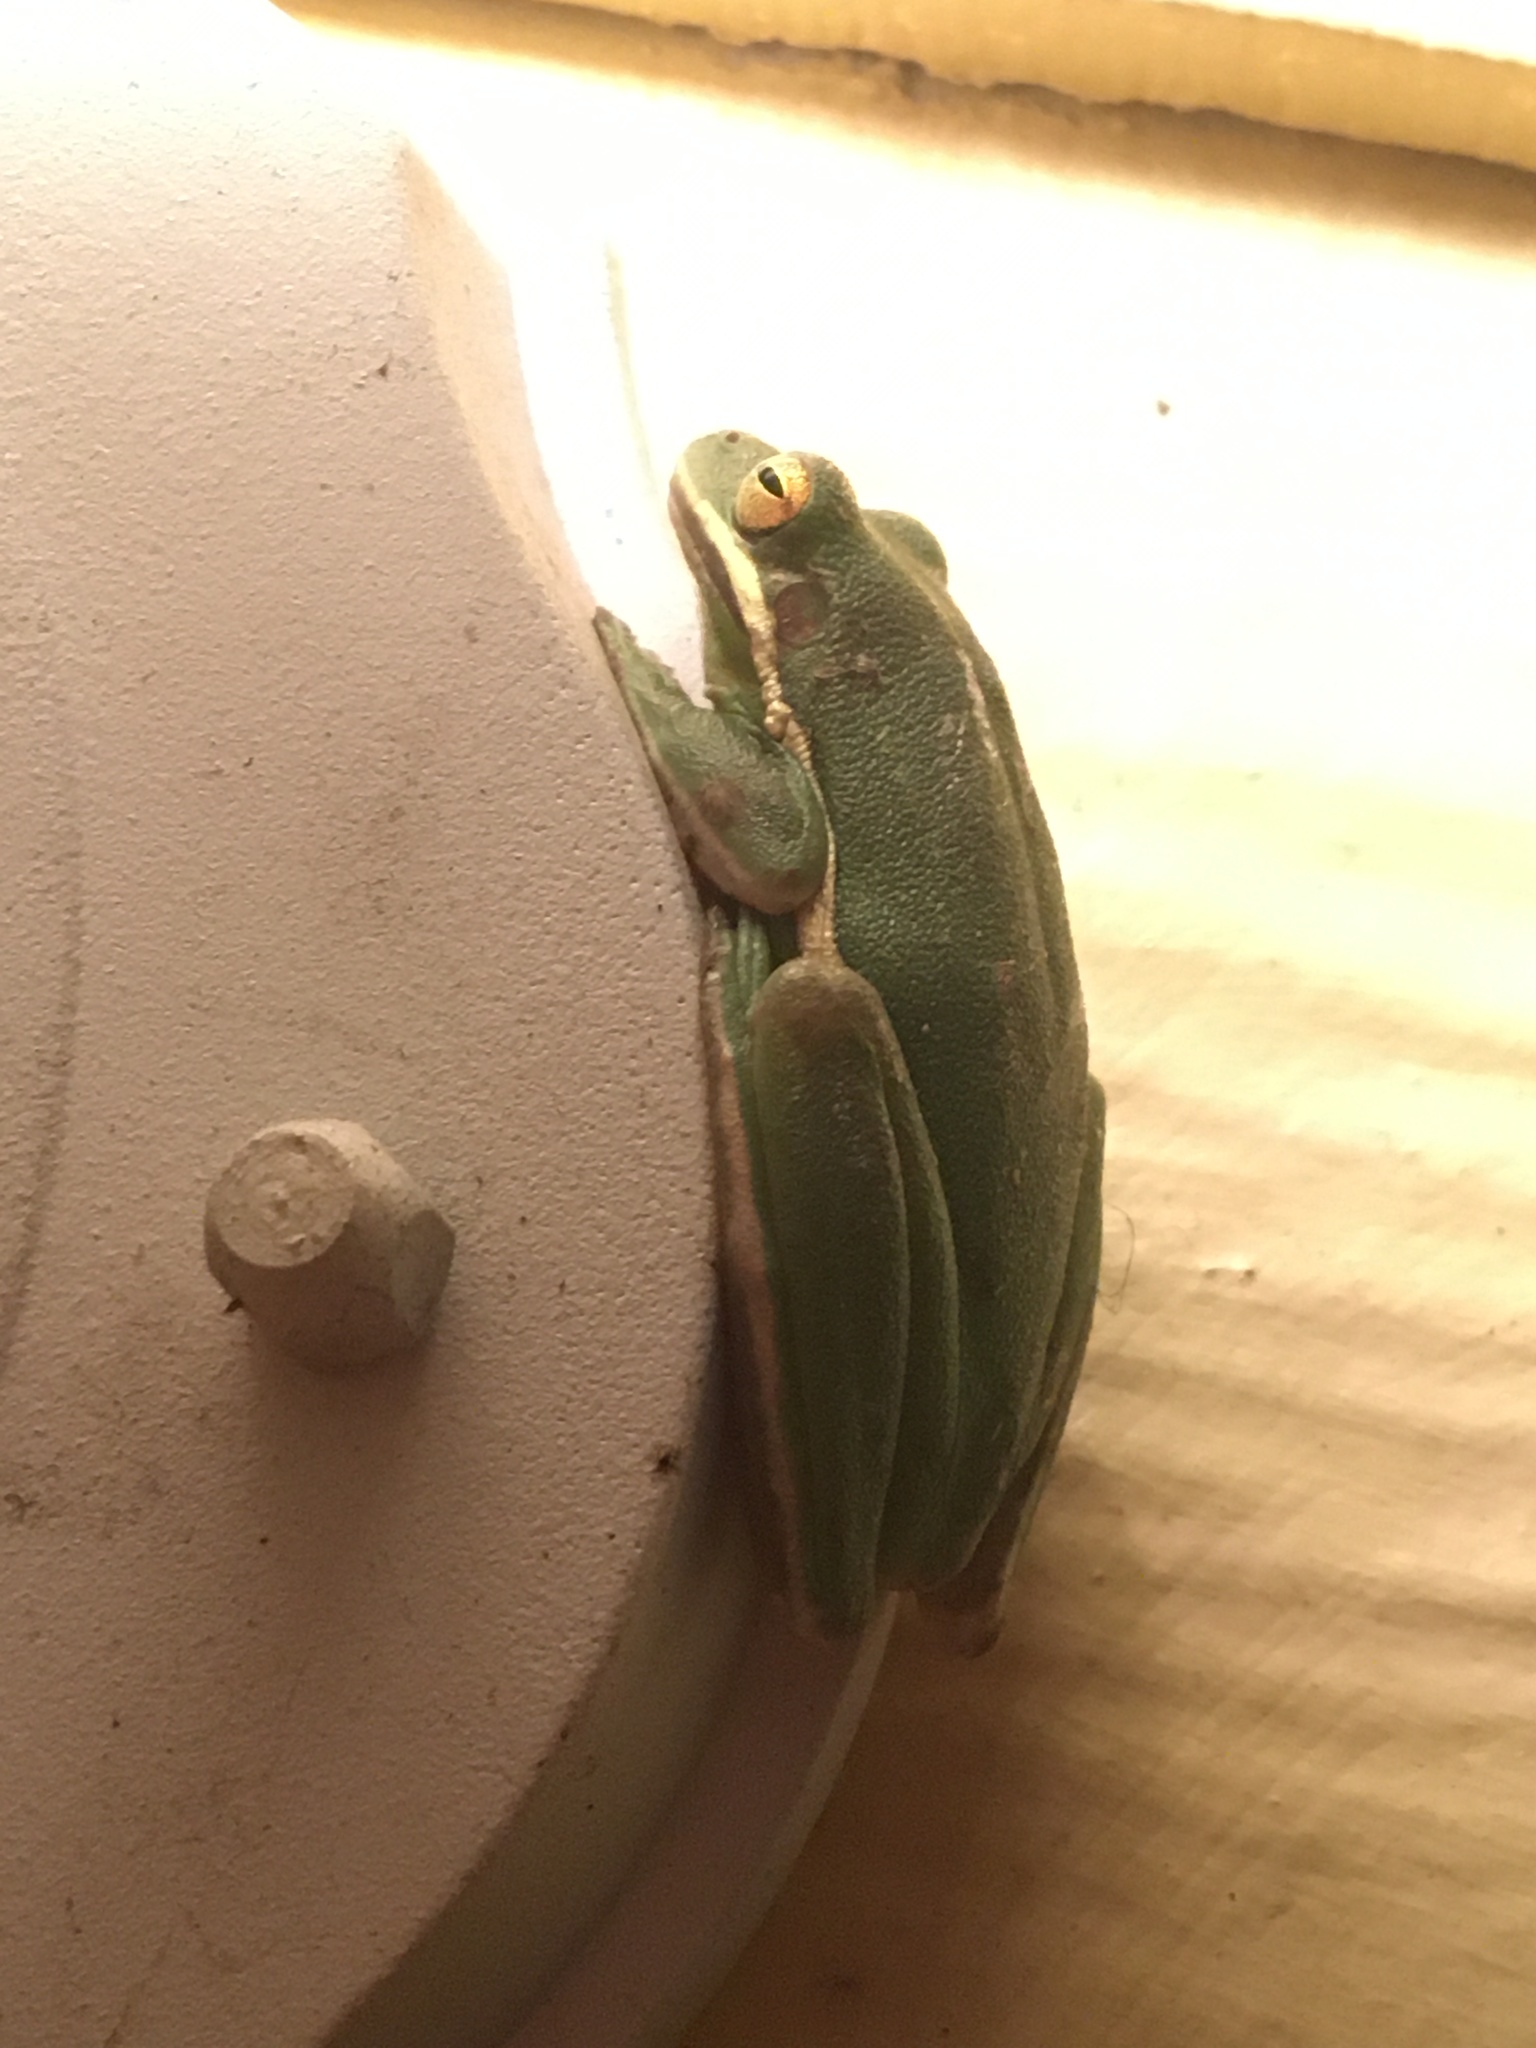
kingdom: Animalia
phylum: Chordata
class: Amphibia
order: Anura
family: Hylidae
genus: Dryophytes
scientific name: Dryophytes cinereus
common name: Green treefrog
